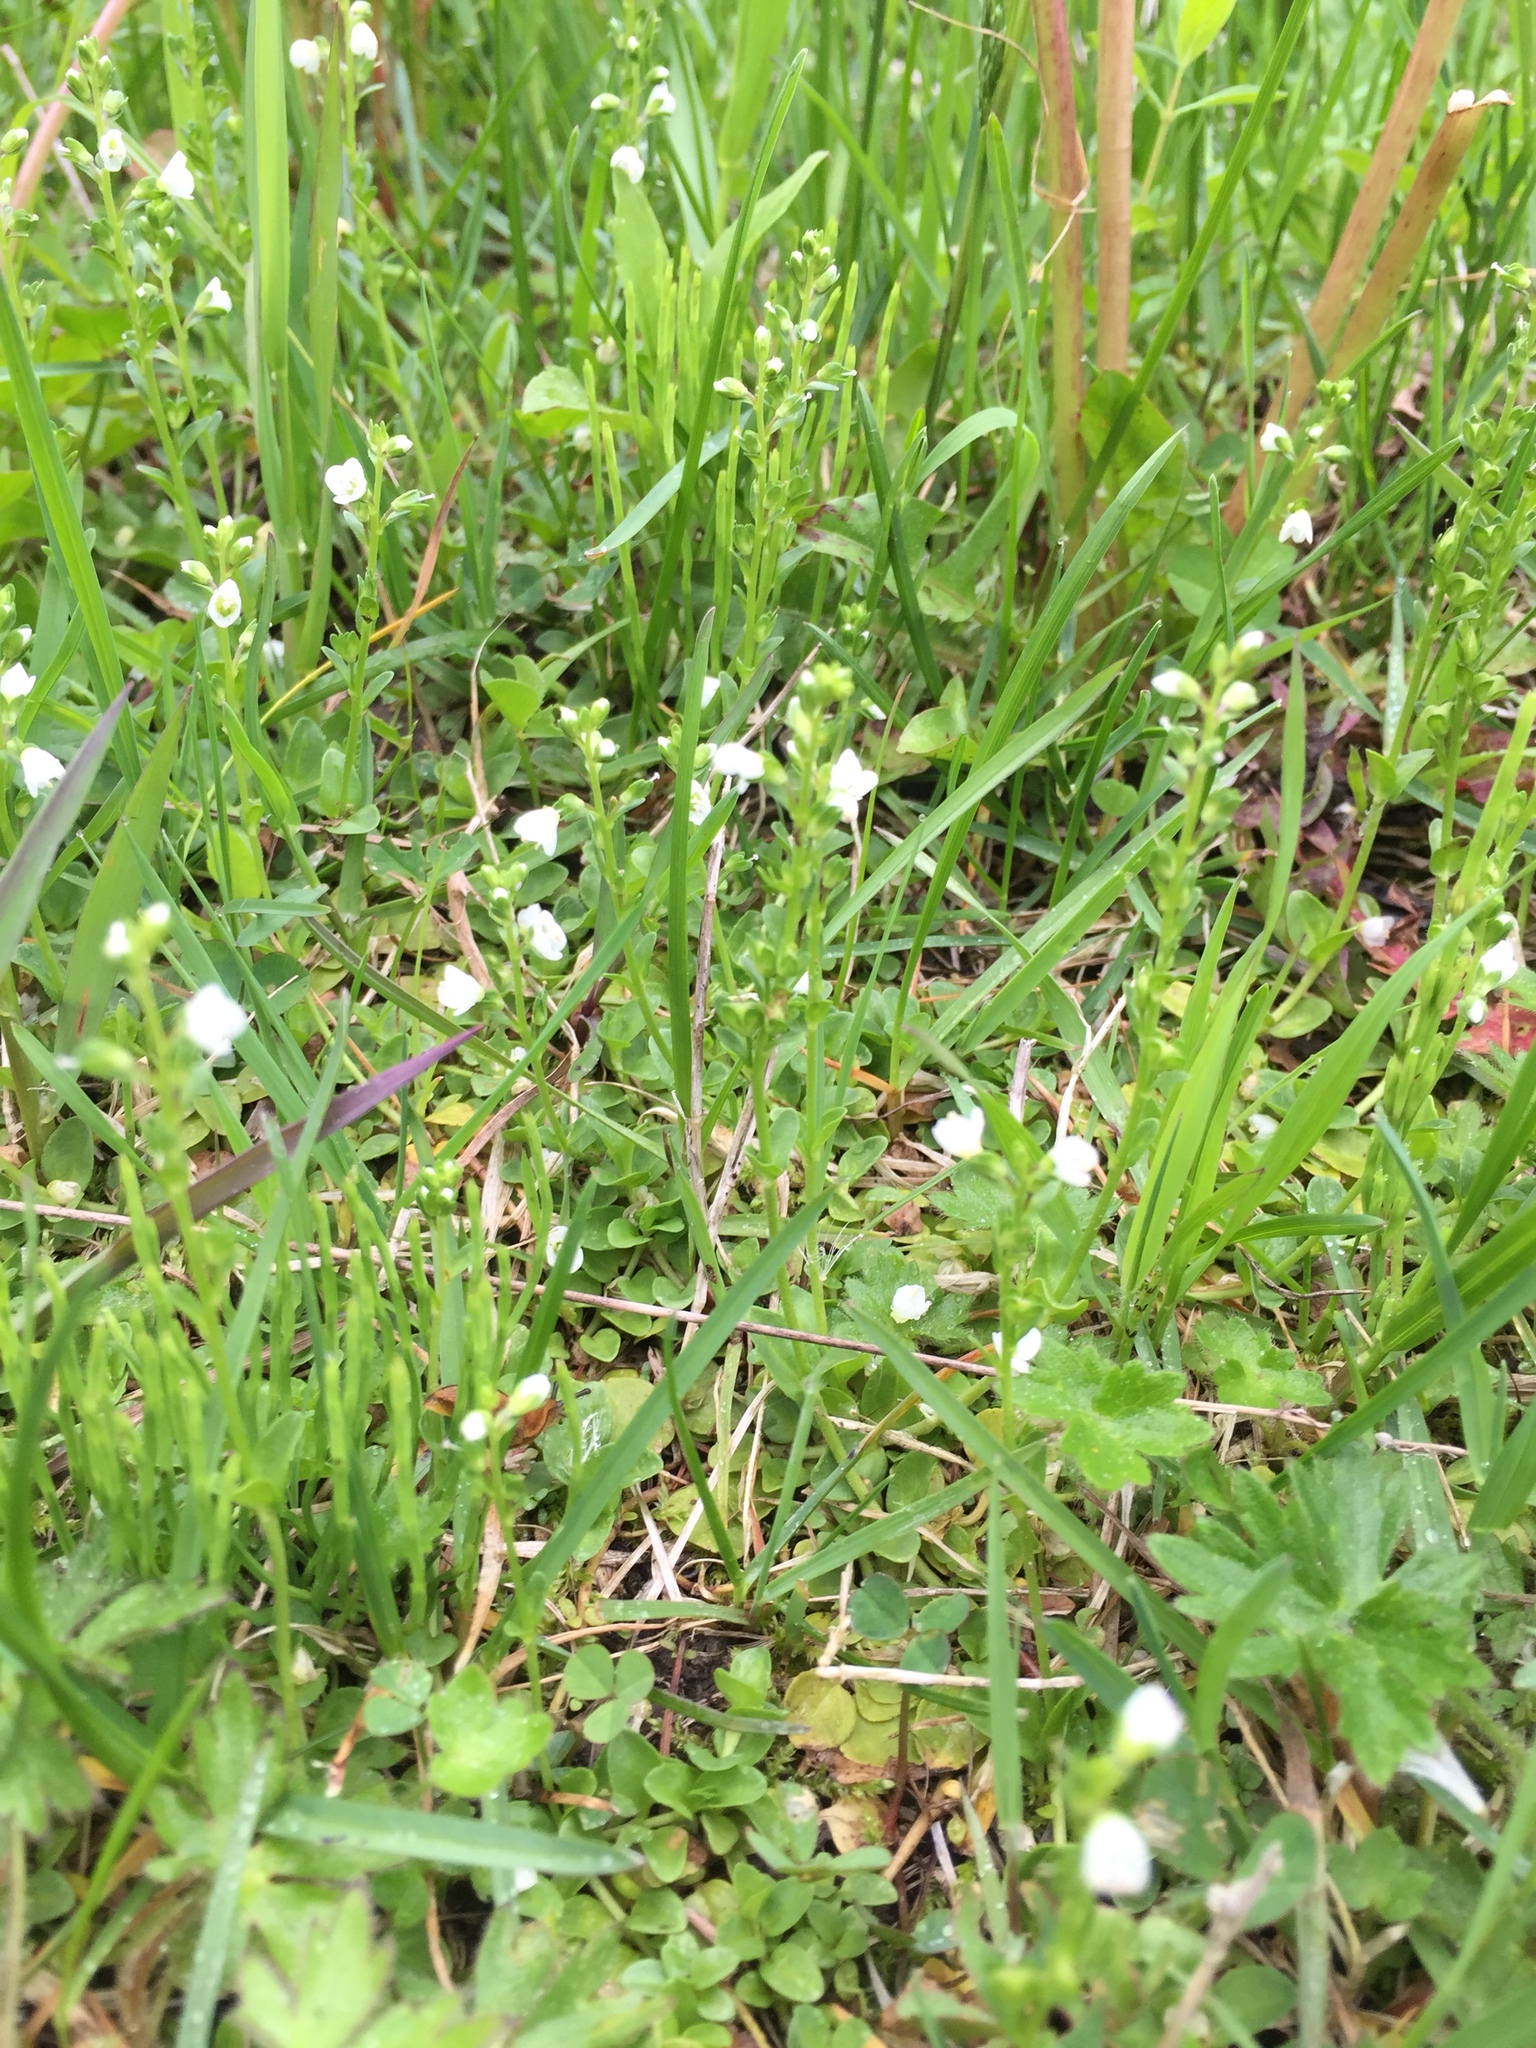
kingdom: Plantae
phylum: Tracheophyta
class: Magnoliopsida
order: Lamiales
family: Plantaginaceae
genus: Veronica
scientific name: Veronica serpyllifolia
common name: Thyme-leaved speedwell
